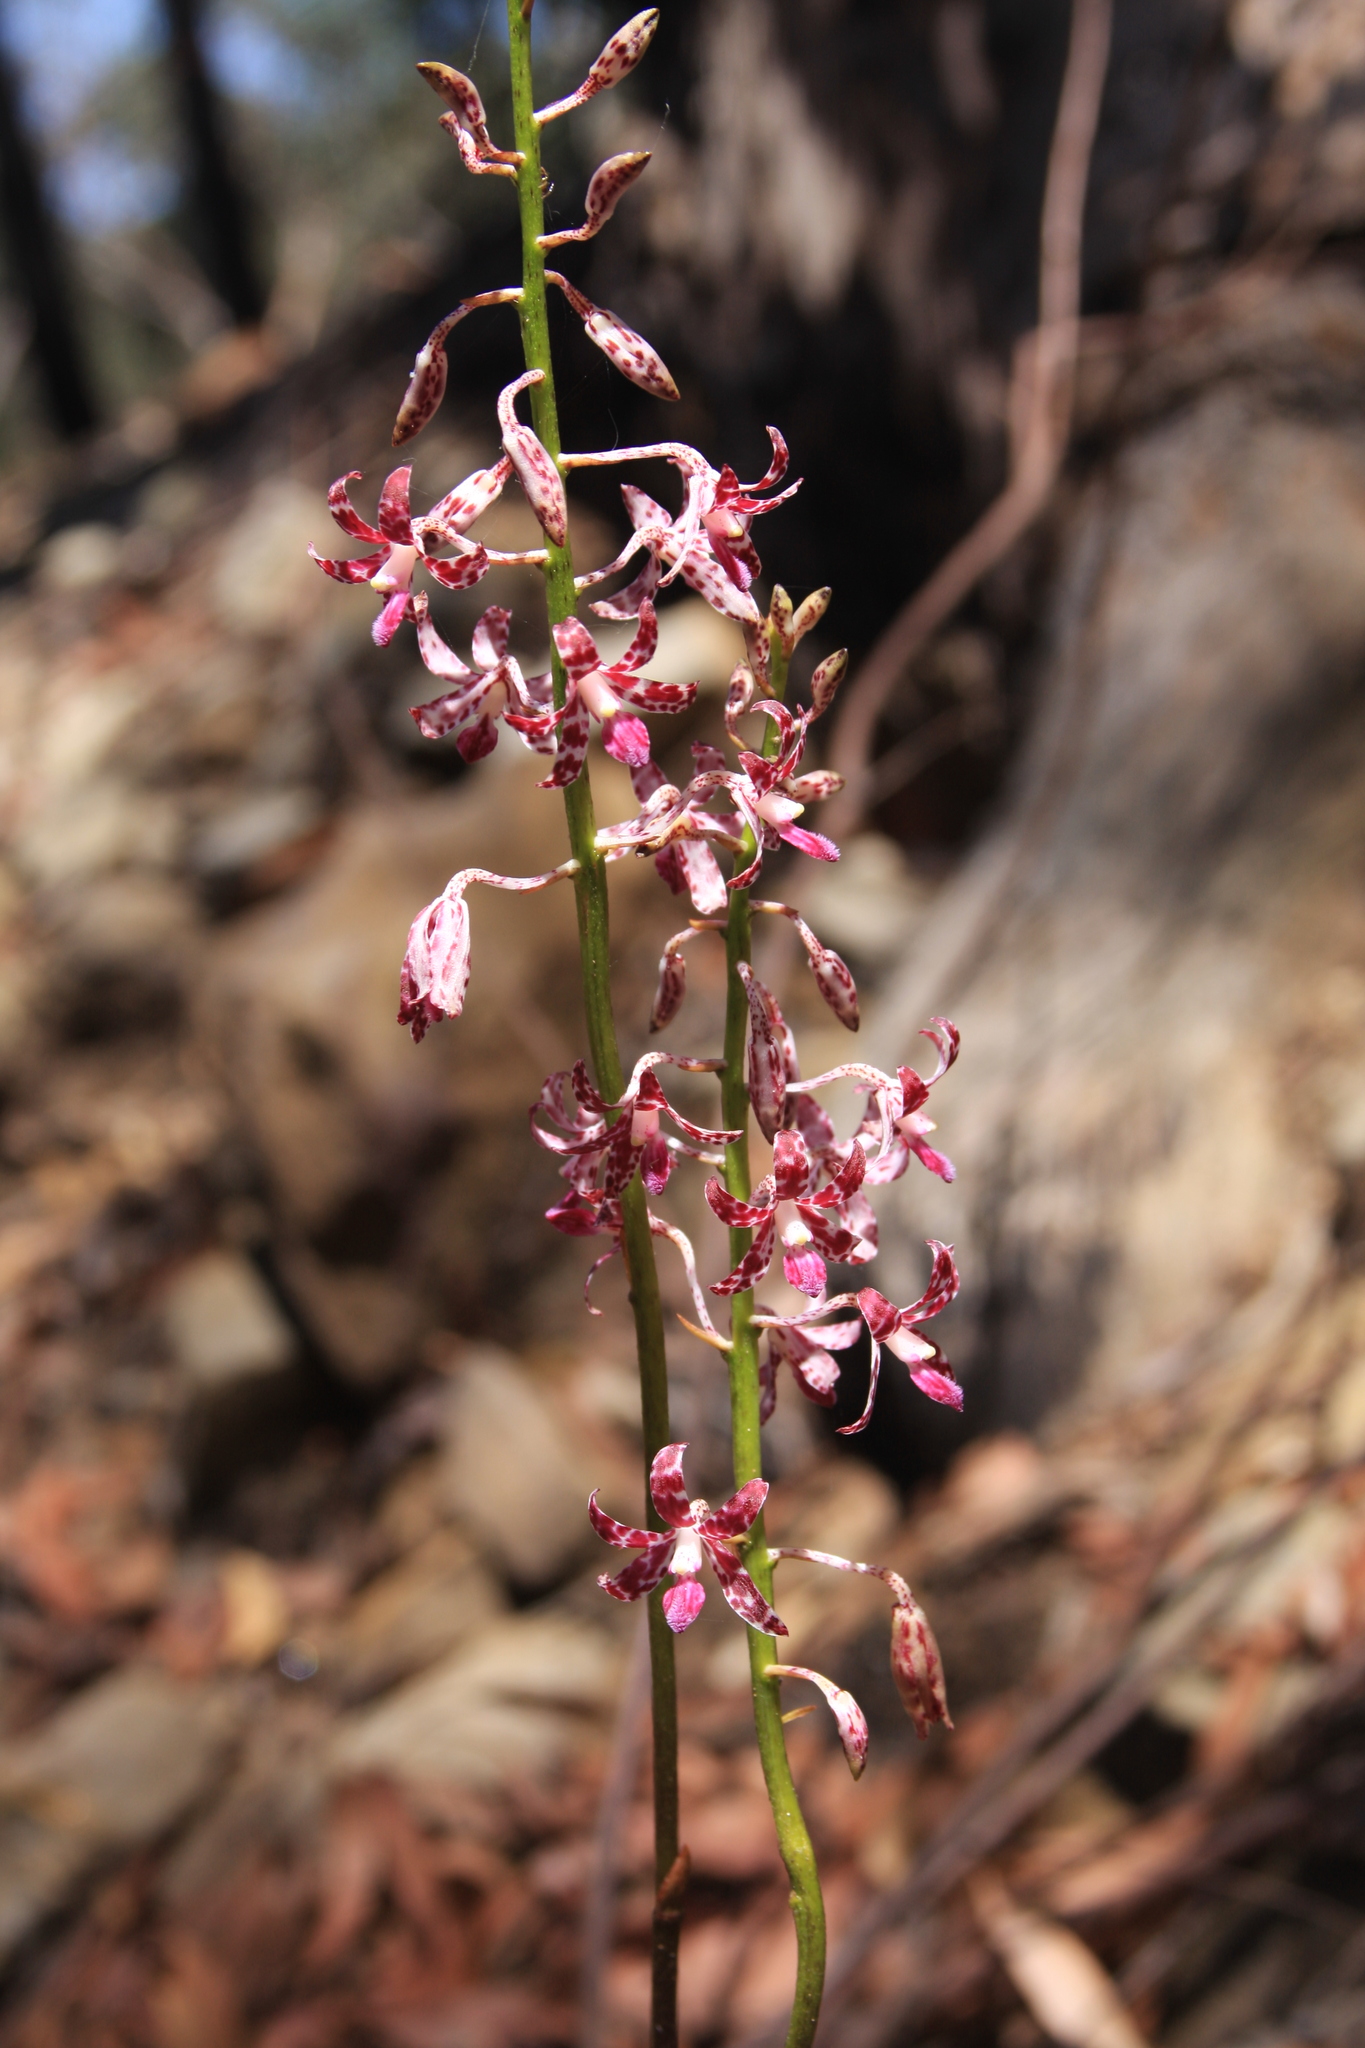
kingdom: Plantae
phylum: Tracheophyta
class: Liliopsida
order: Asparagales
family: Orchidaceae
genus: Dipodium
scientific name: Dipodium variegatum
